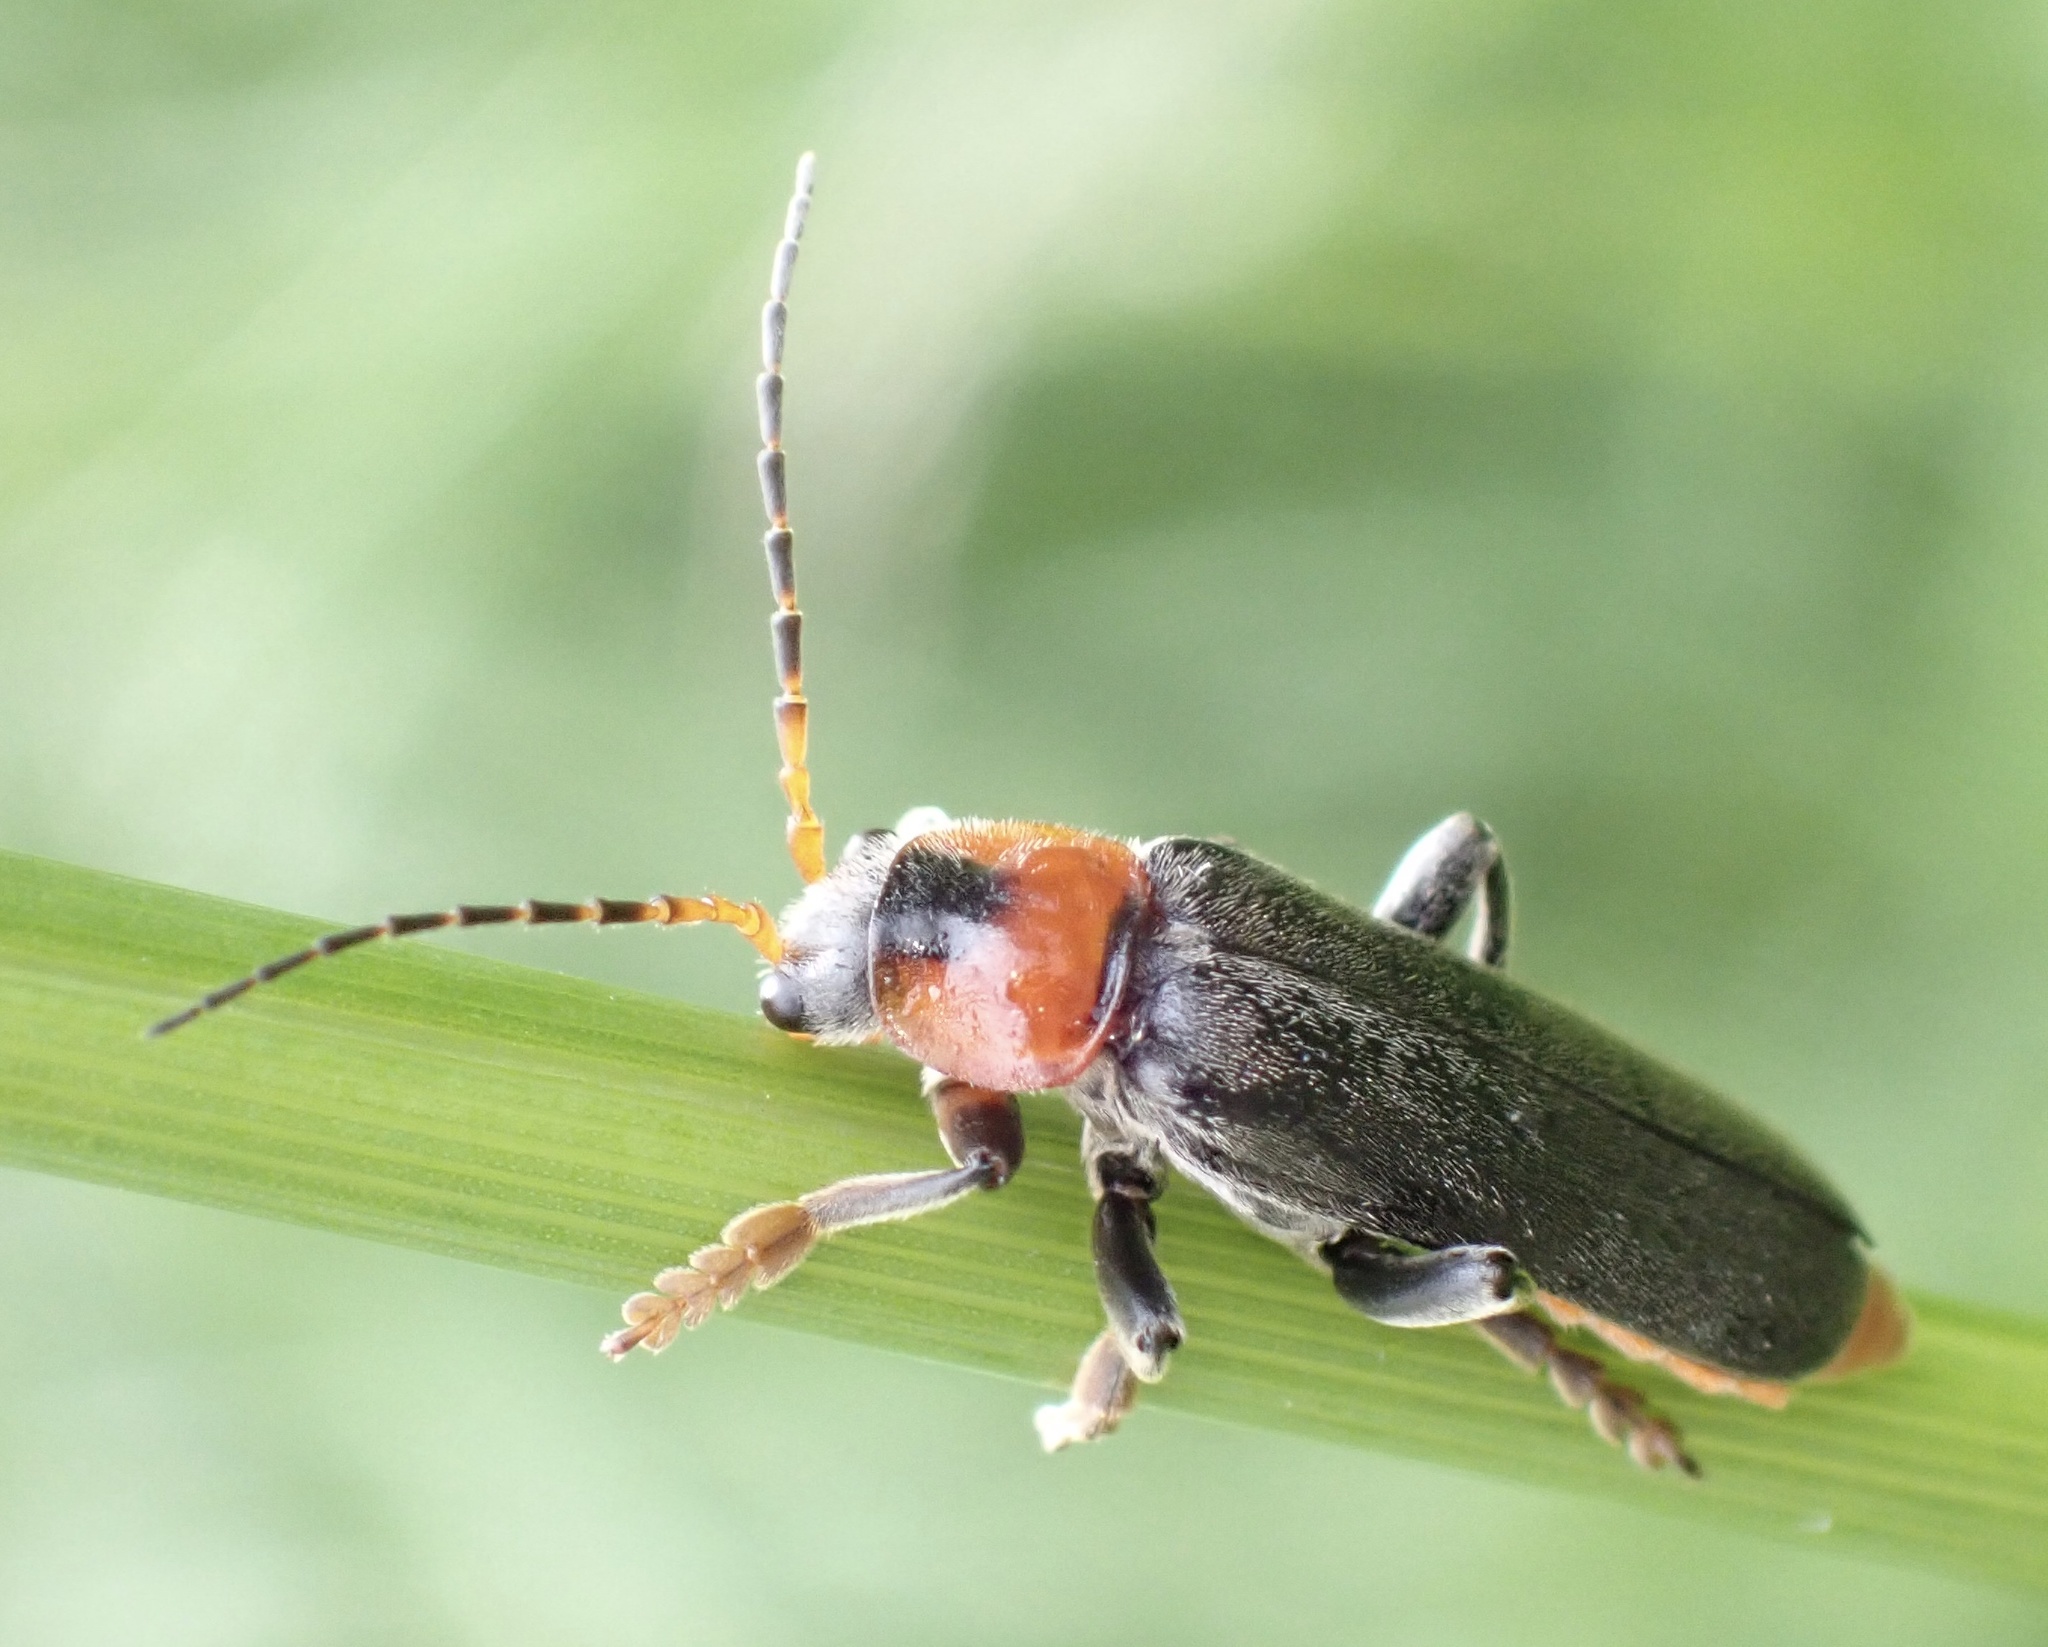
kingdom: Animalia
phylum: Arthropoda
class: Insecta
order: Coleoptera
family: Cantharidae
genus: Cantharis
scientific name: Cantharis fusca
